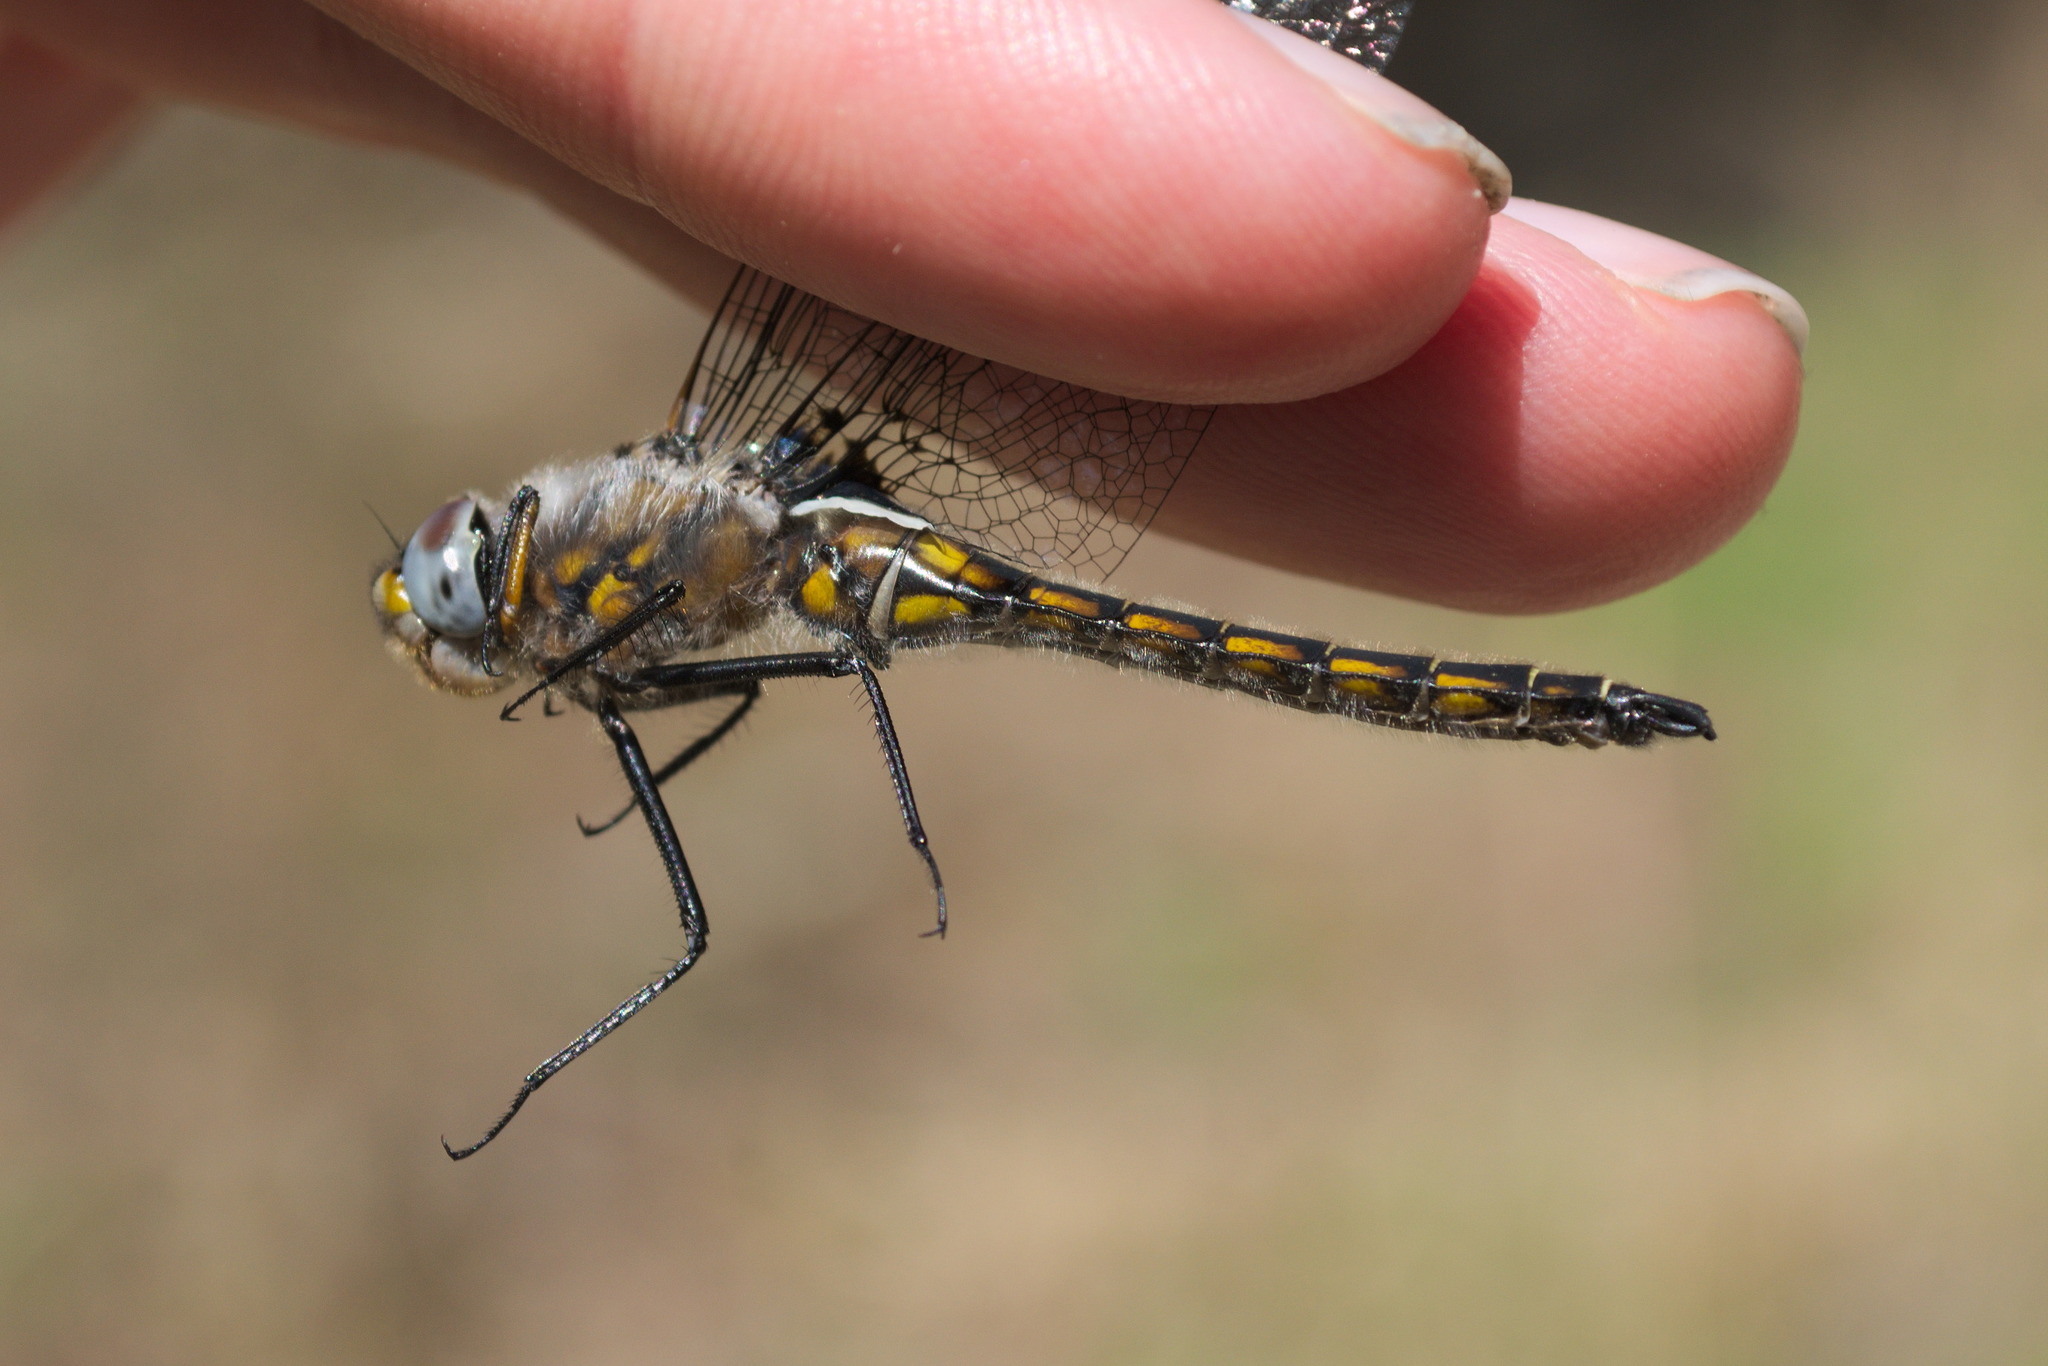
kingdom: Animalia
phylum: Arthropoda
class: Insecta
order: Odonata
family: Corduliidae
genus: Epitheca
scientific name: Epitheca spinosa
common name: Robust baskettail
